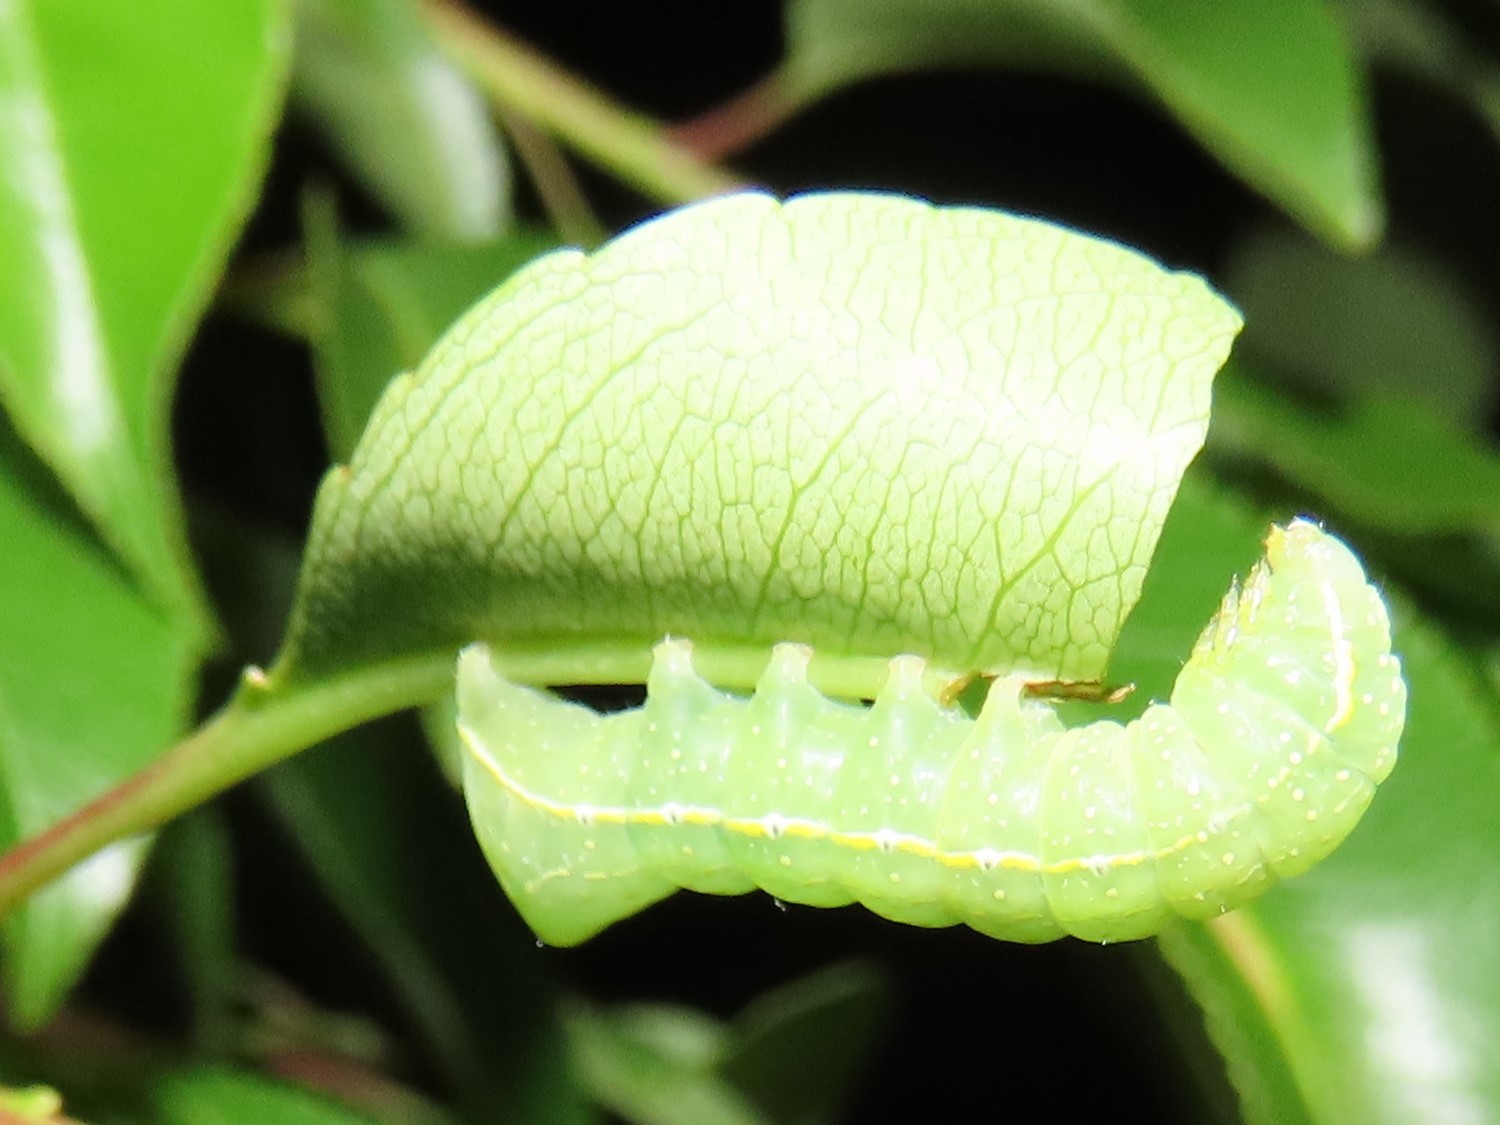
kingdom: Animalia
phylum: Arthropoda
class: Insecta
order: Lepidoptera
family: Noctuidae
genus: Amphipyra
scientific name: Amphipyra pyramidoides
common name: American copper underwing
